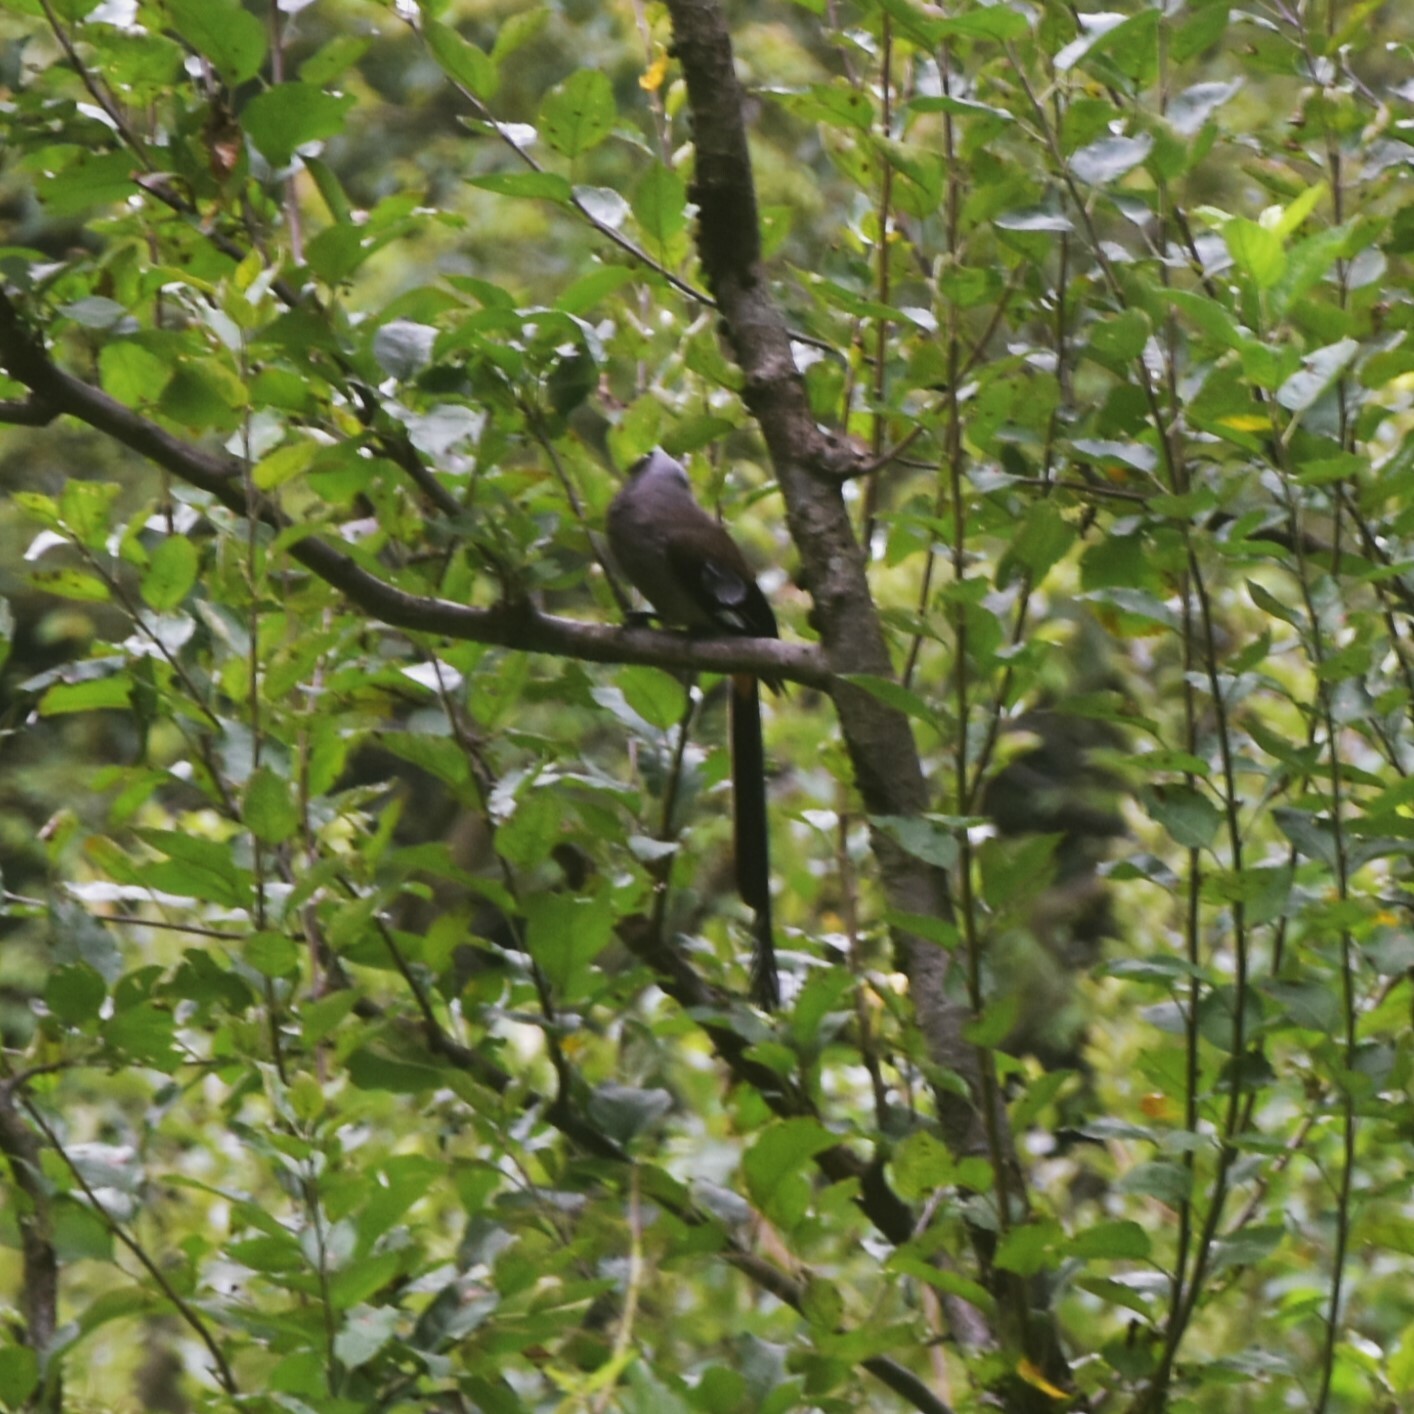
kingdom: Animalia
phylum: Chordata
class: Aves
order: Passeriformes
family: Corvidae
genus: Dendrocitta
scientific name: Dendrocitta formosae
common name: Grey treepie
